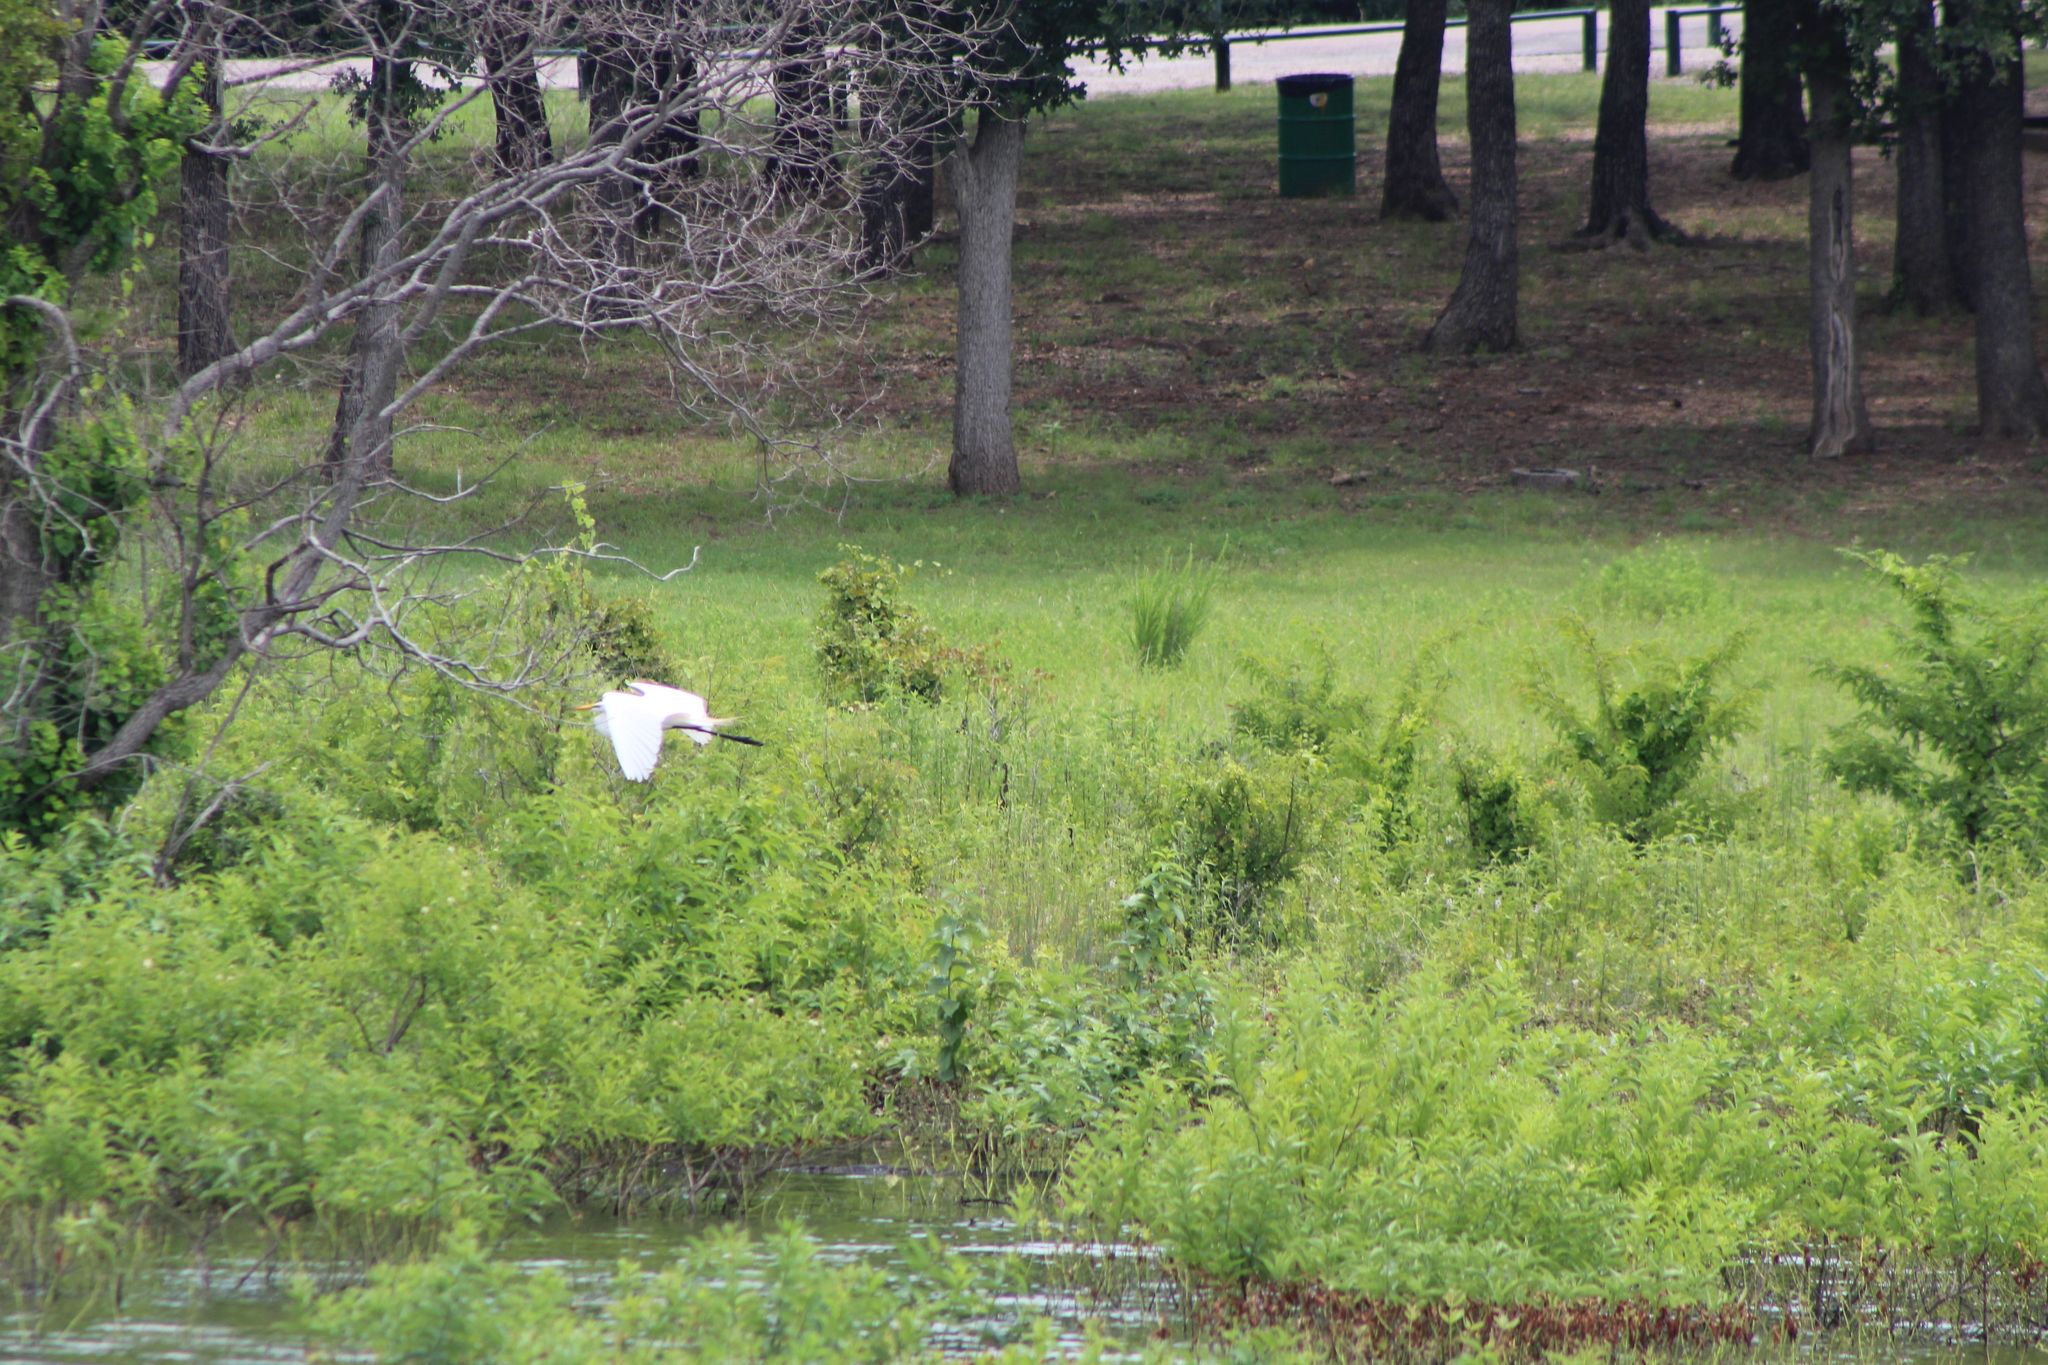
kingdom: Animalia
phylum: Chordata
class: Aves
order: Pelecaniformes
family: Ardeidae
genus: Ardea
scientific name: Ardea alba
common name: Great egret
